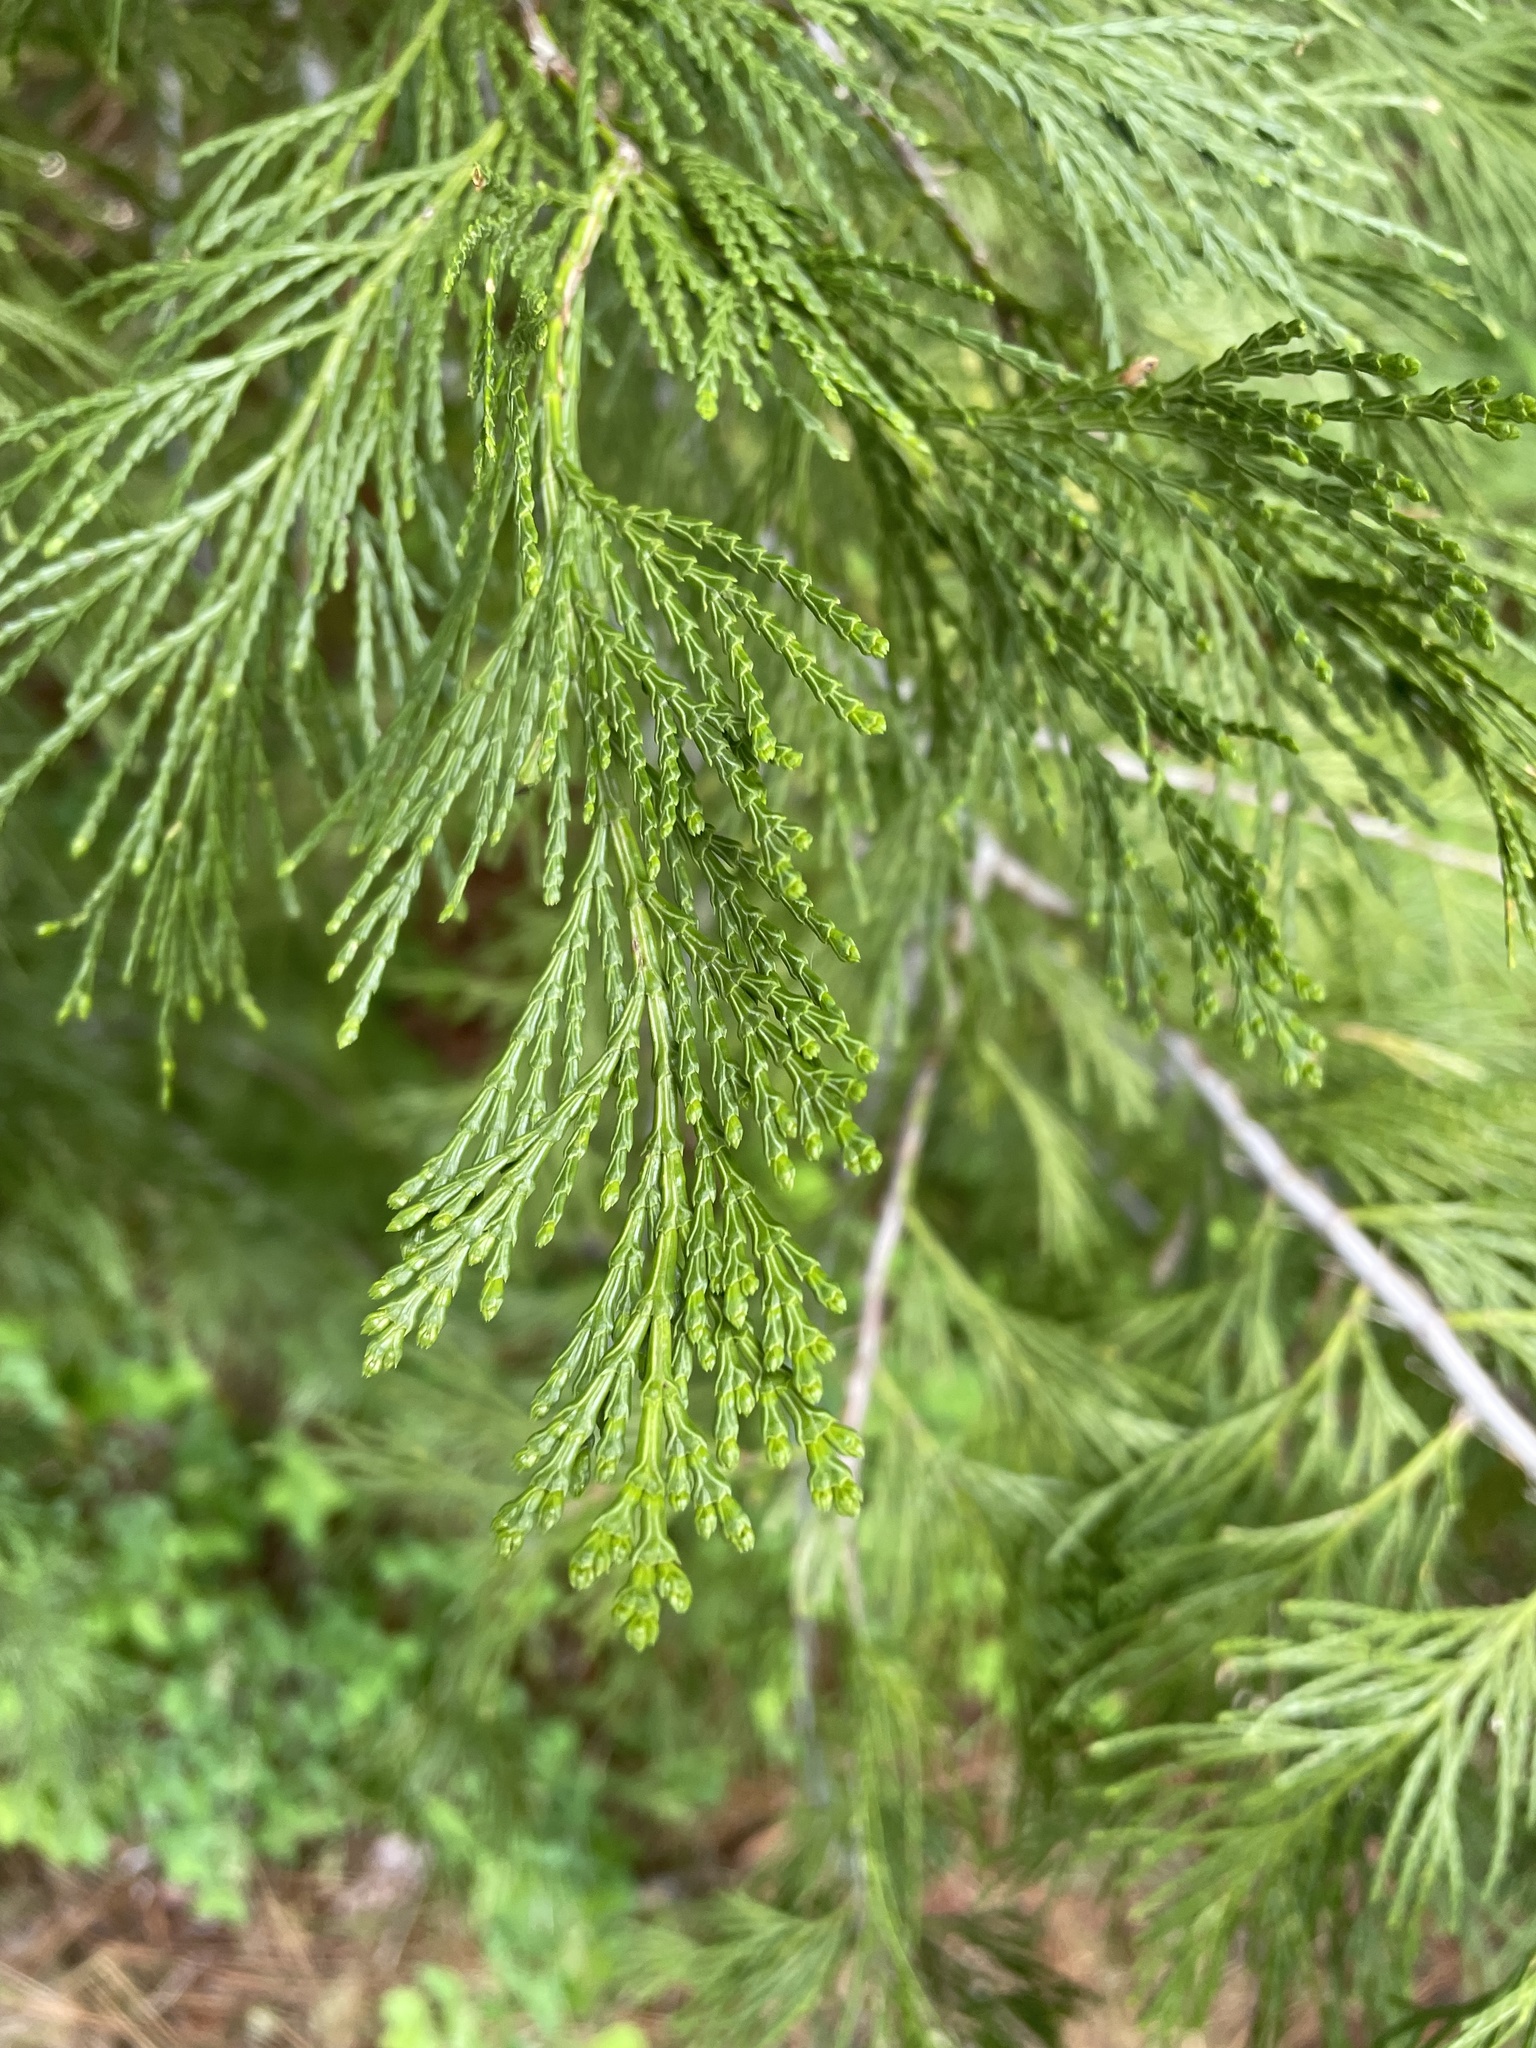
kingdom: Plantae
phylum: Tracheophyta
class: Pinopsida
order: Pinales
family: Cupressaceae
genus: Calocedrus
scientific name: Calocedrus decurrens
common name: Californian incense-cedar
